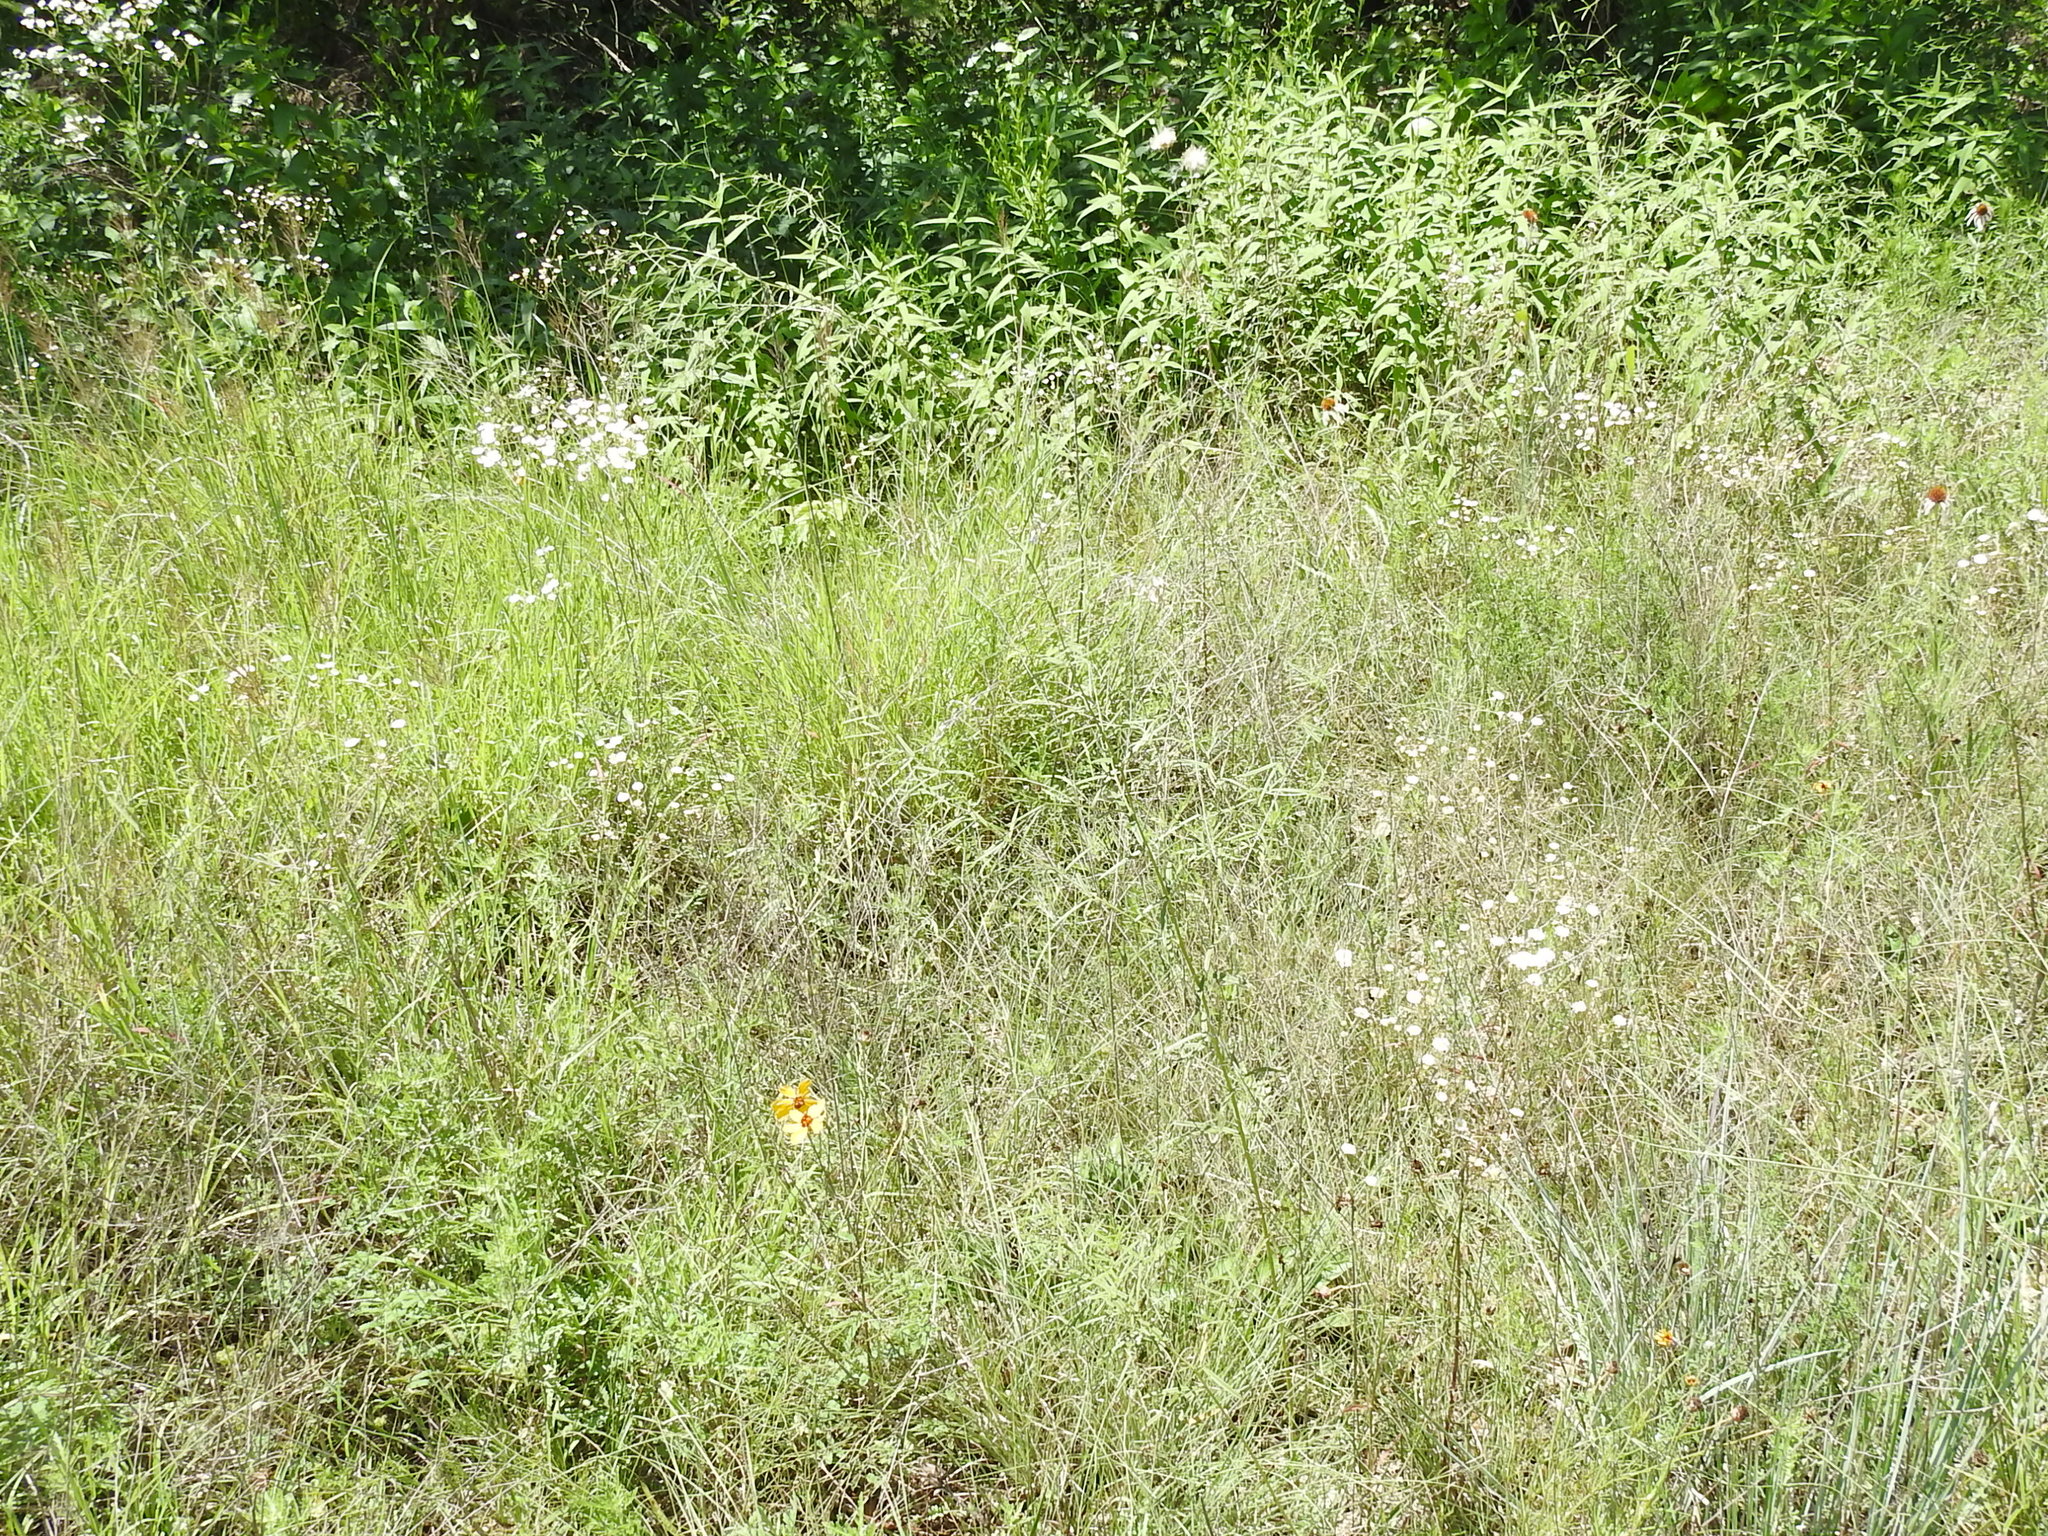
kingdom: Plantae
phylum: Tracheophyta
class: Magnoliopsida
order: Fabales
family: Fabaceae
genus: Pediomelum
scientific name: Pediomelum linearifolium
